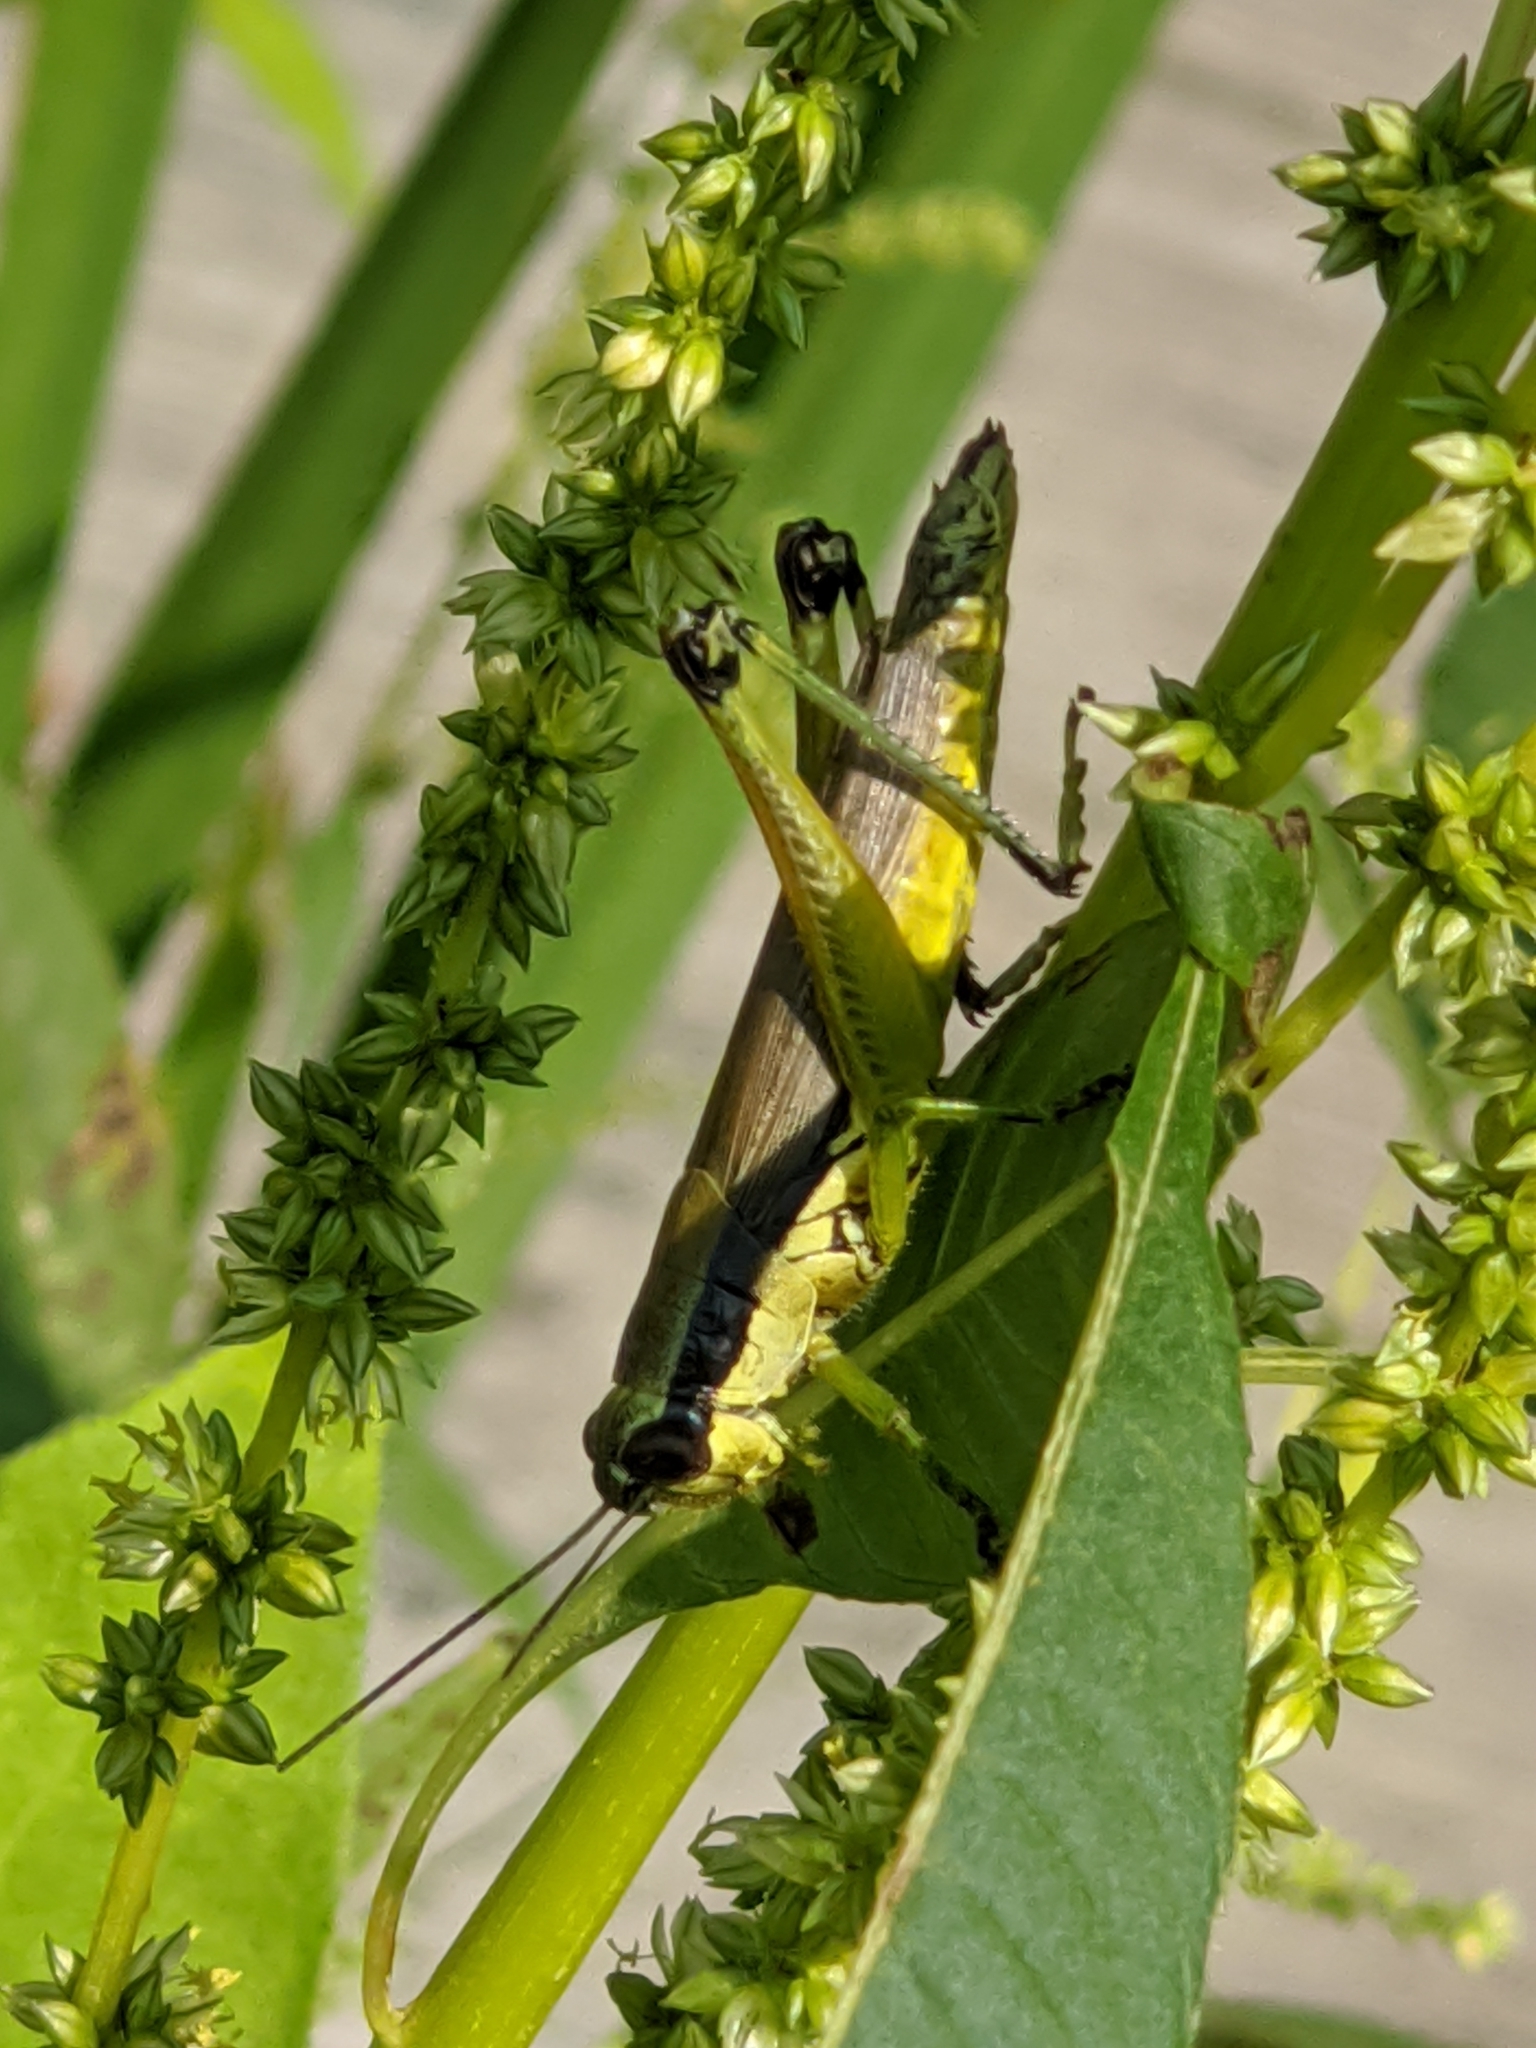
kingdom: Animalia
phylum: Arthropoda
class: Insecta
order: Orthoptera
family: Acrididae
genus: Paroxya
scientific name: Paroxya clavuligera
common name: Olive-green swamp grasshopper
